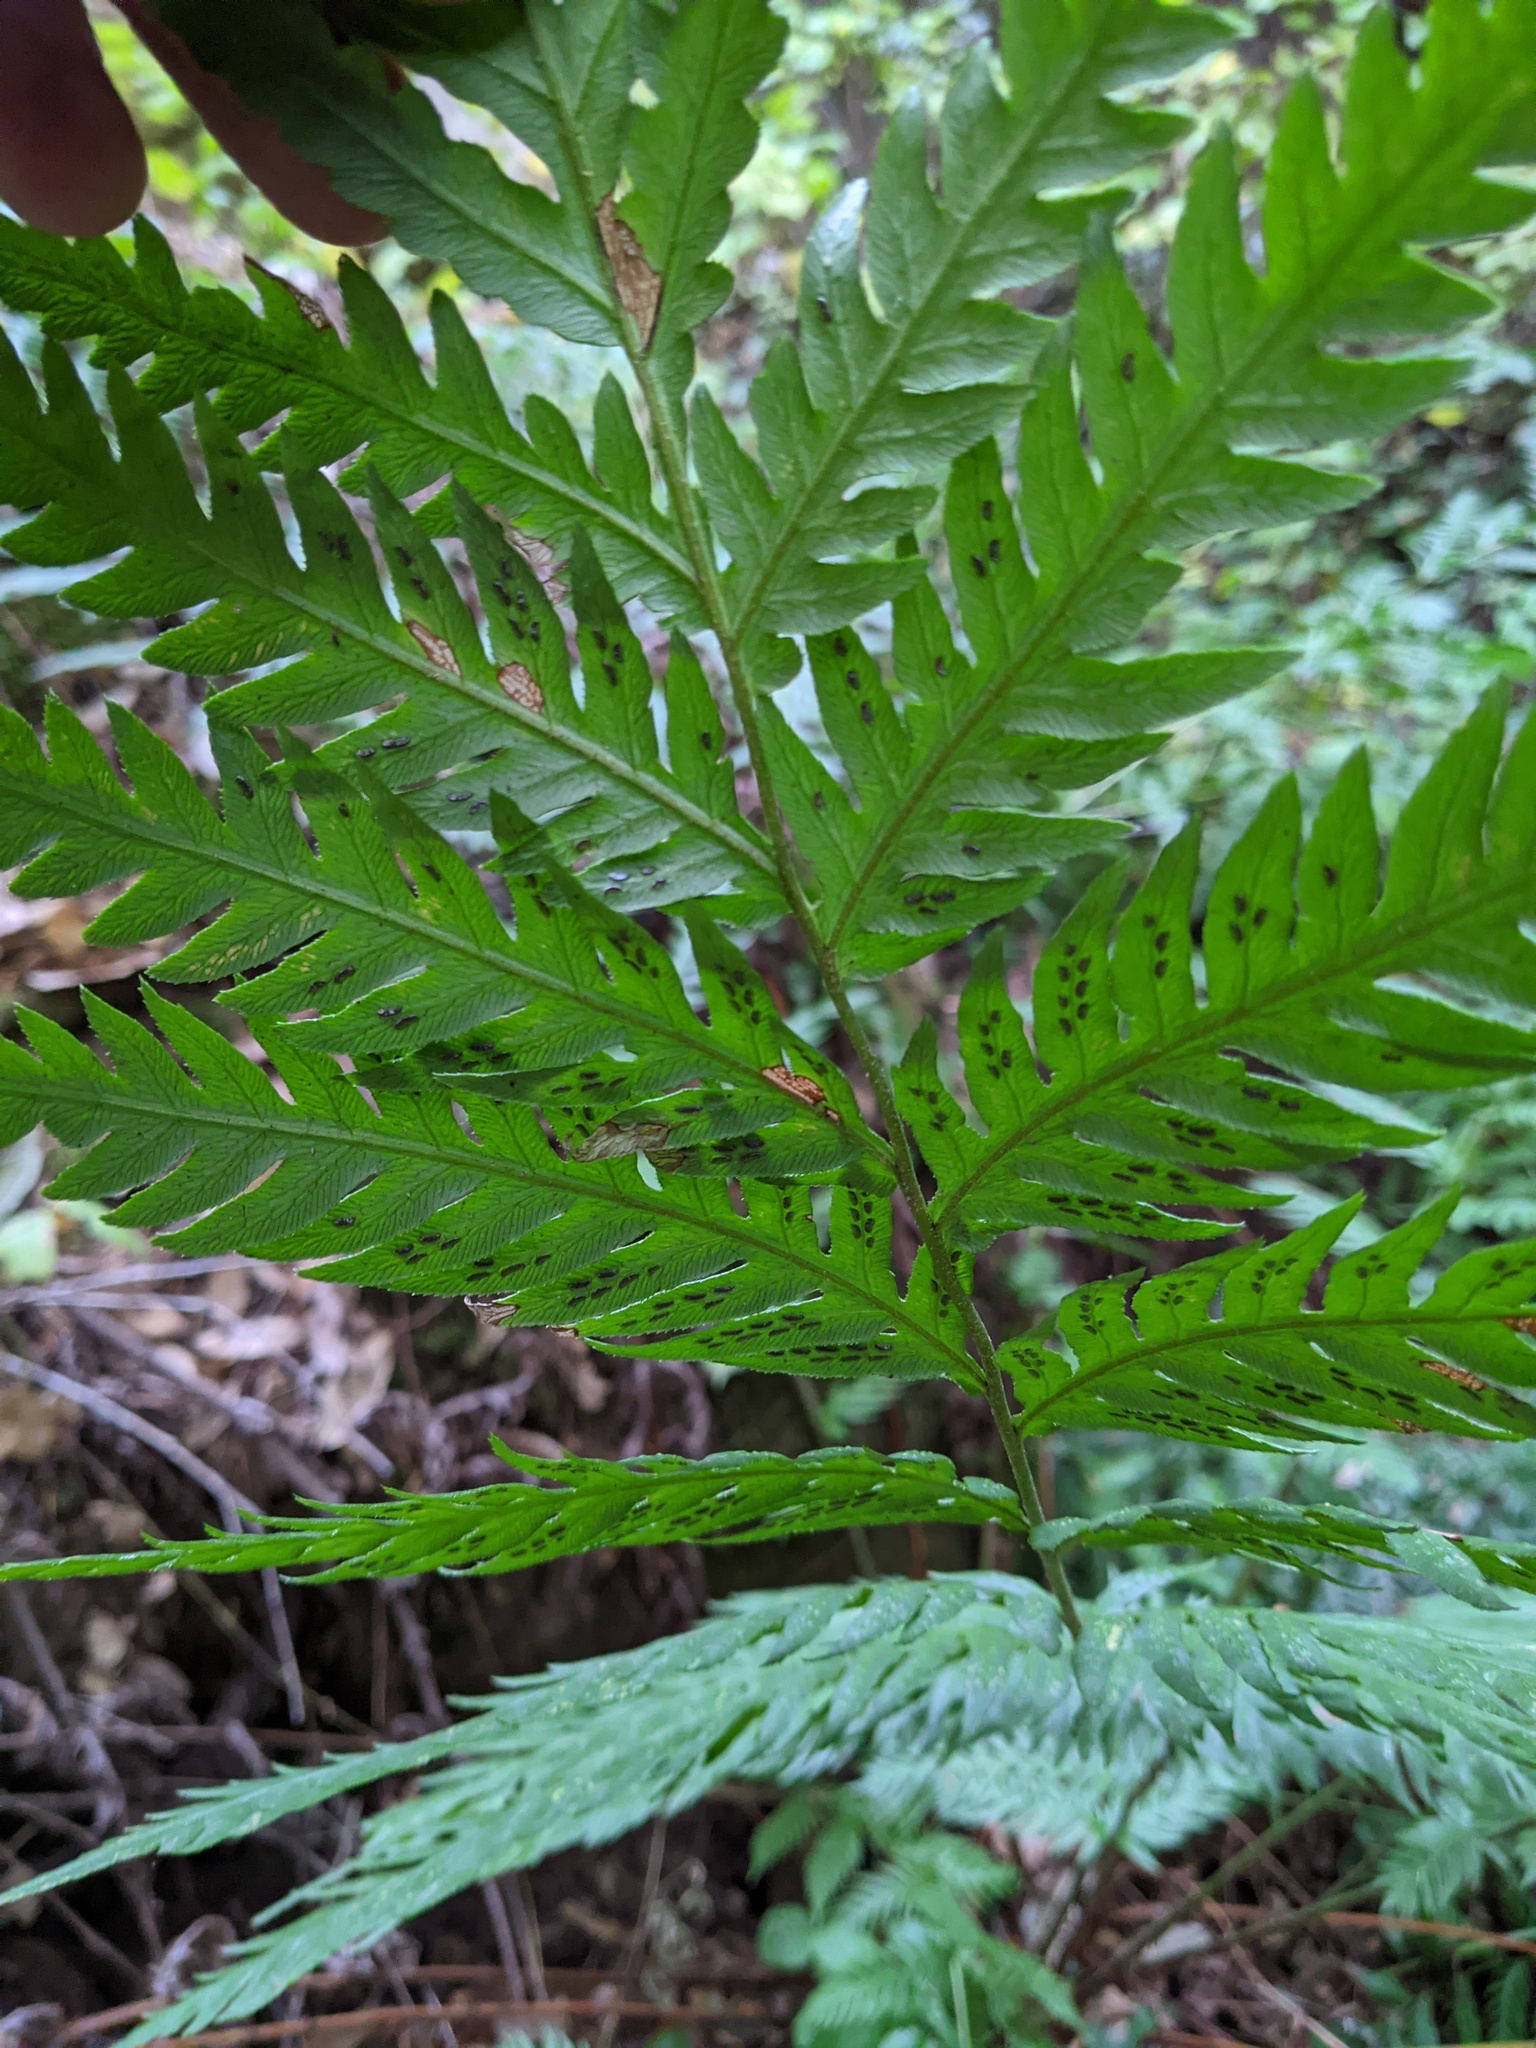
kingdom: Plantae
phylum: Tracheophyta
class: Polypodiopsida
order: Polypodiales
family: Blechnaceae
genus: Woodwardia
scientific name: Woodwardia fimbriata
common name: Giant chain fern
